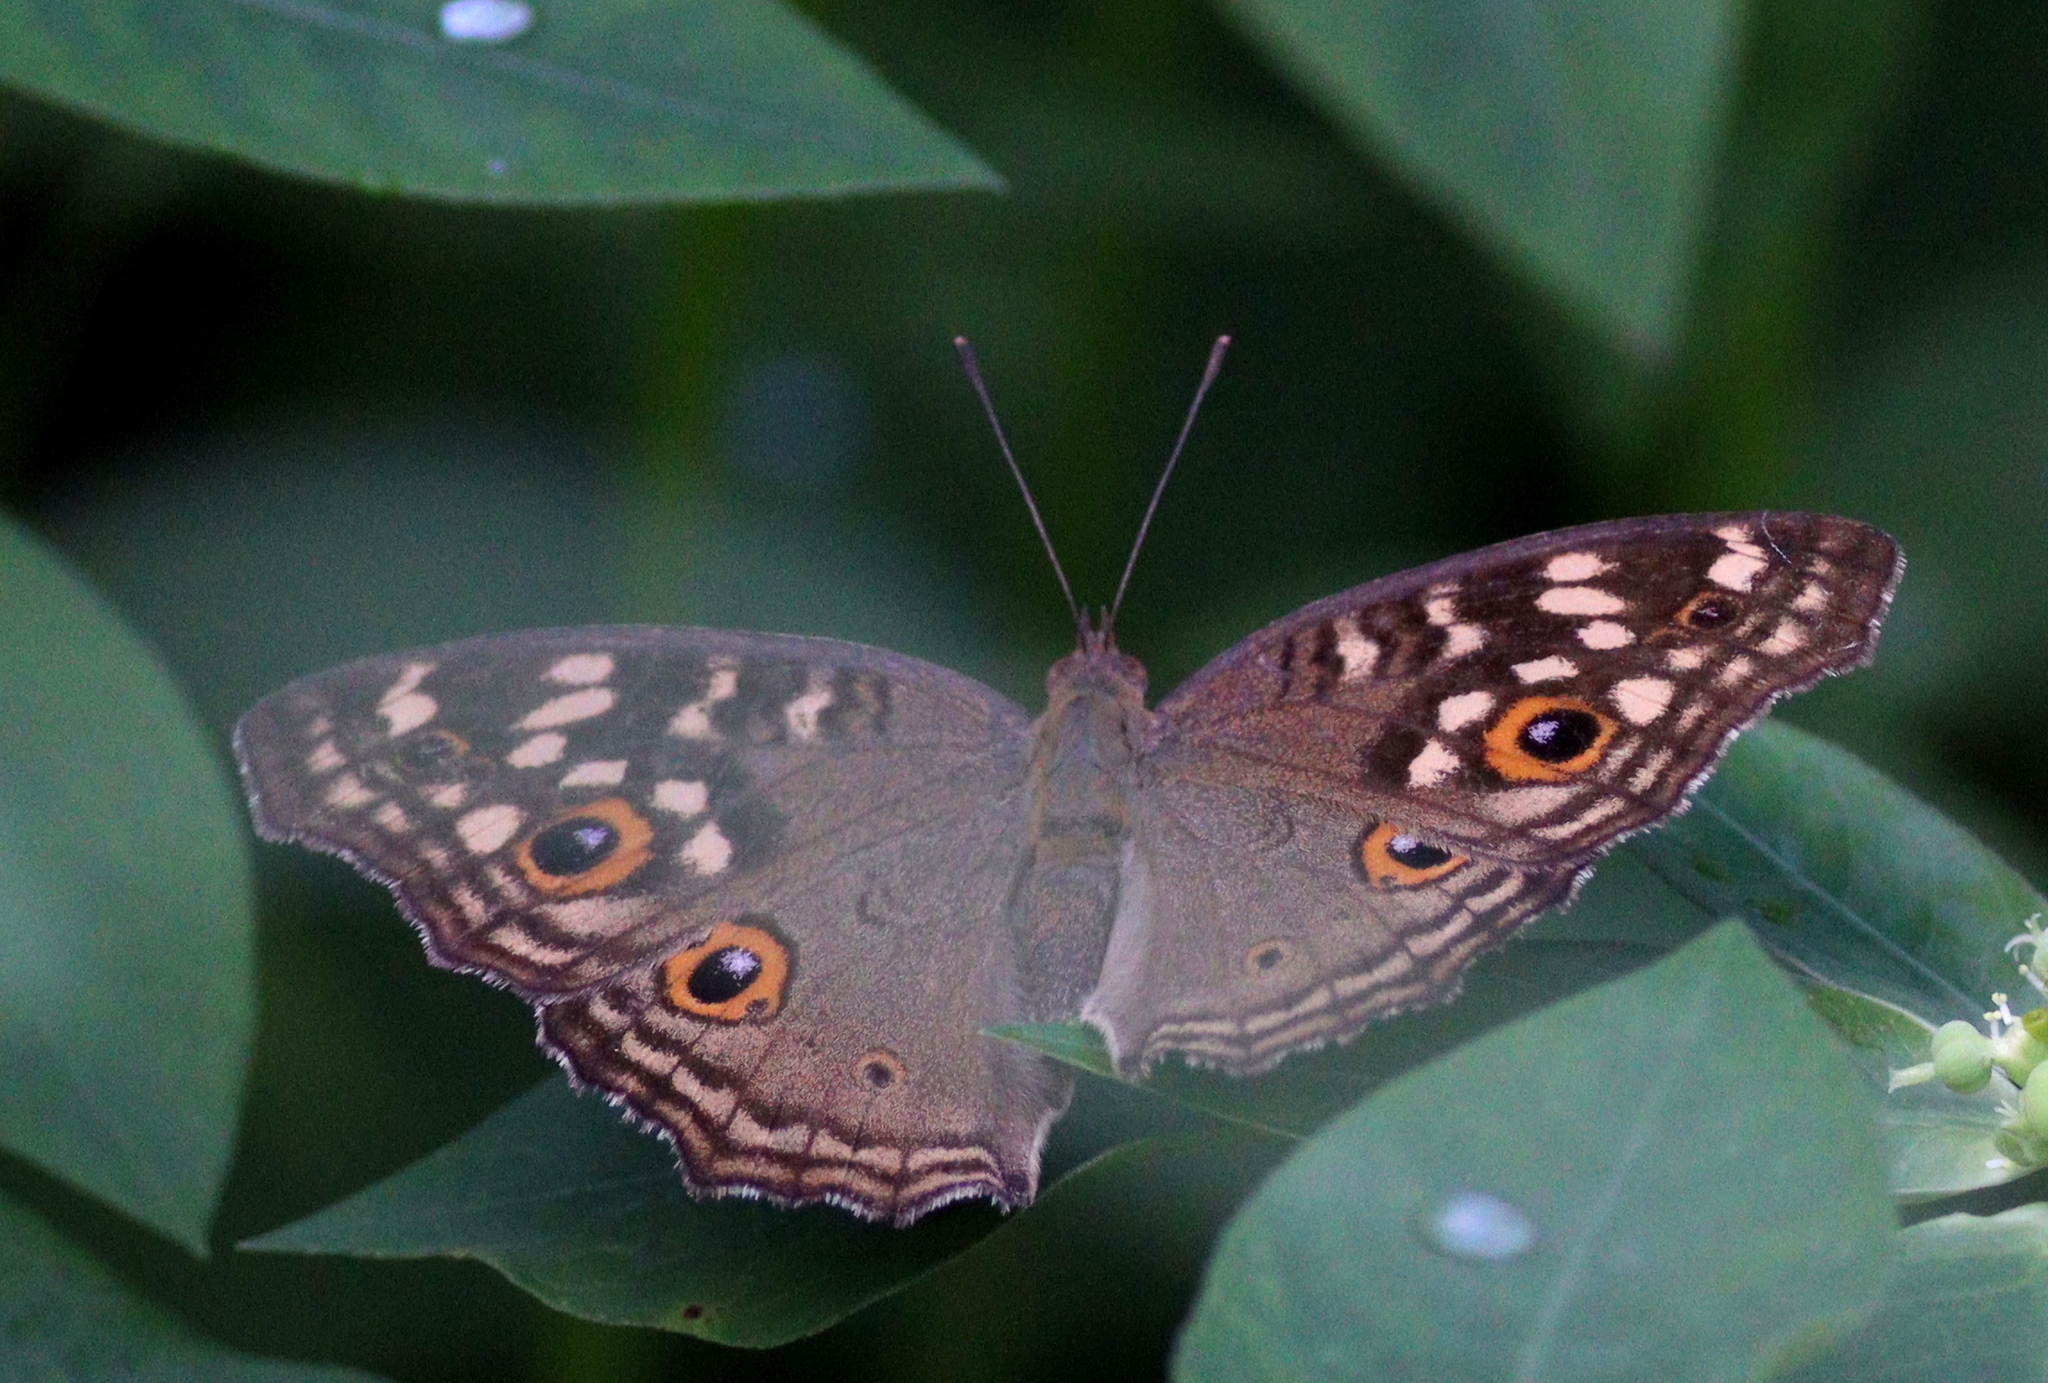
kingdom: Animalia
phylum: Arthropoda
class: Insecta
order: Lepidoptera
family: Nymphalidae
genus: Junonia
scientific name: Junonia lemonias
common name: Lemon pansy
